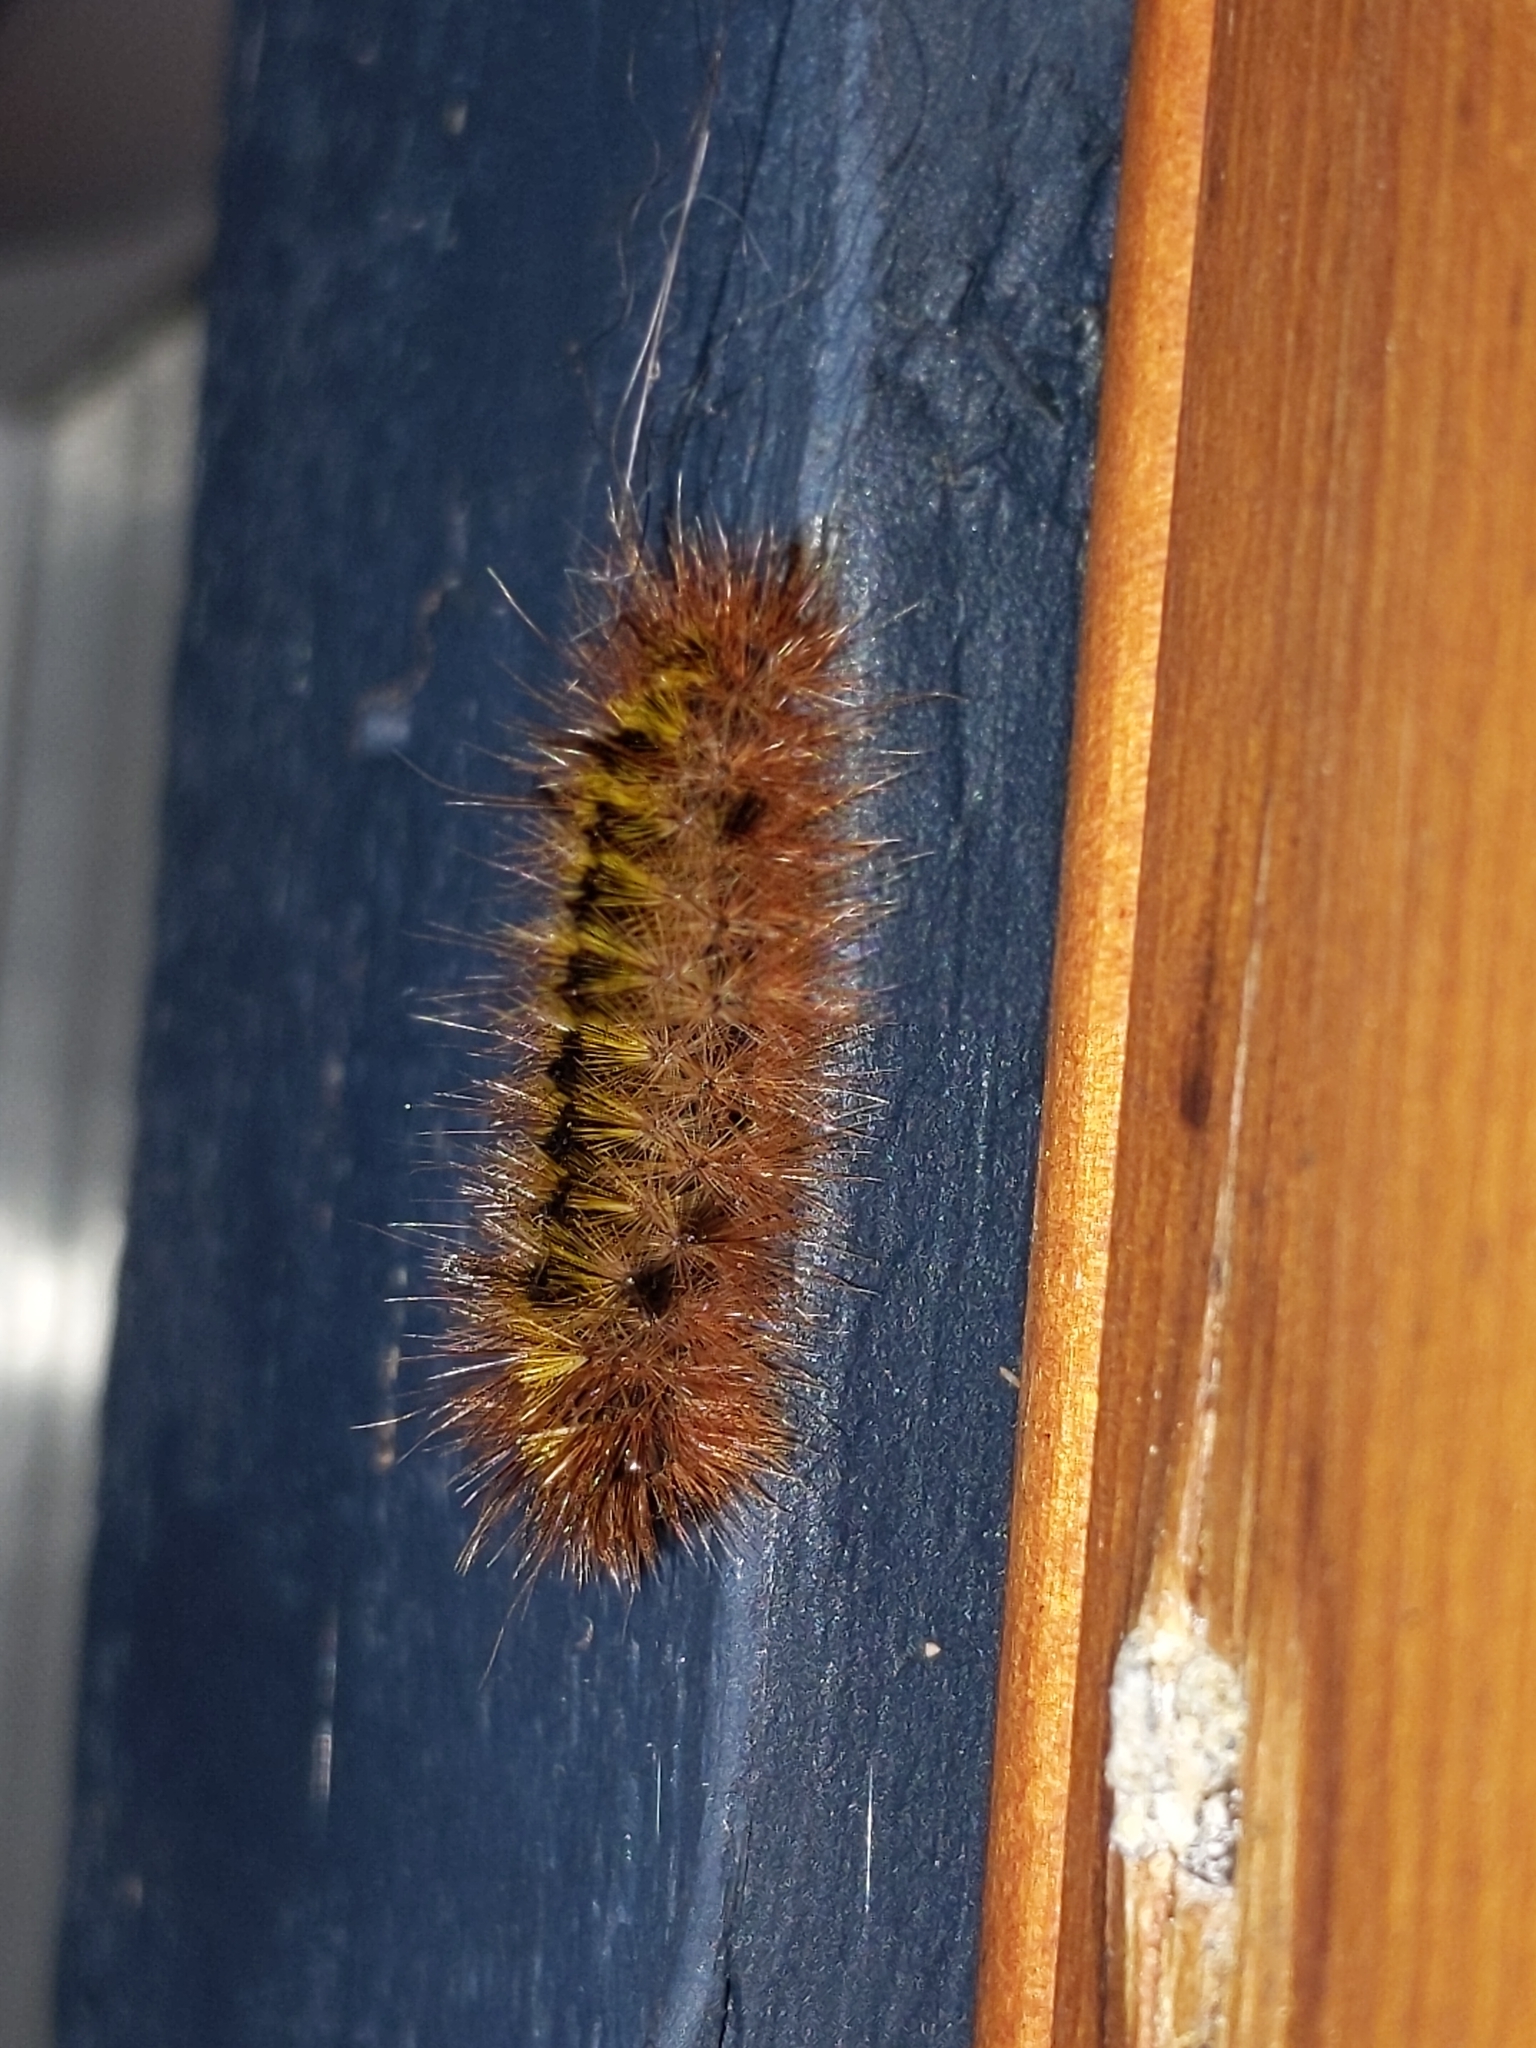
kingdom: Animalia
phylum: Arthropoda
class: Insecta
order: Lepidoptera
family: Erebidae
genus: Lophocampa
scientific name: Lophocampa argentata
